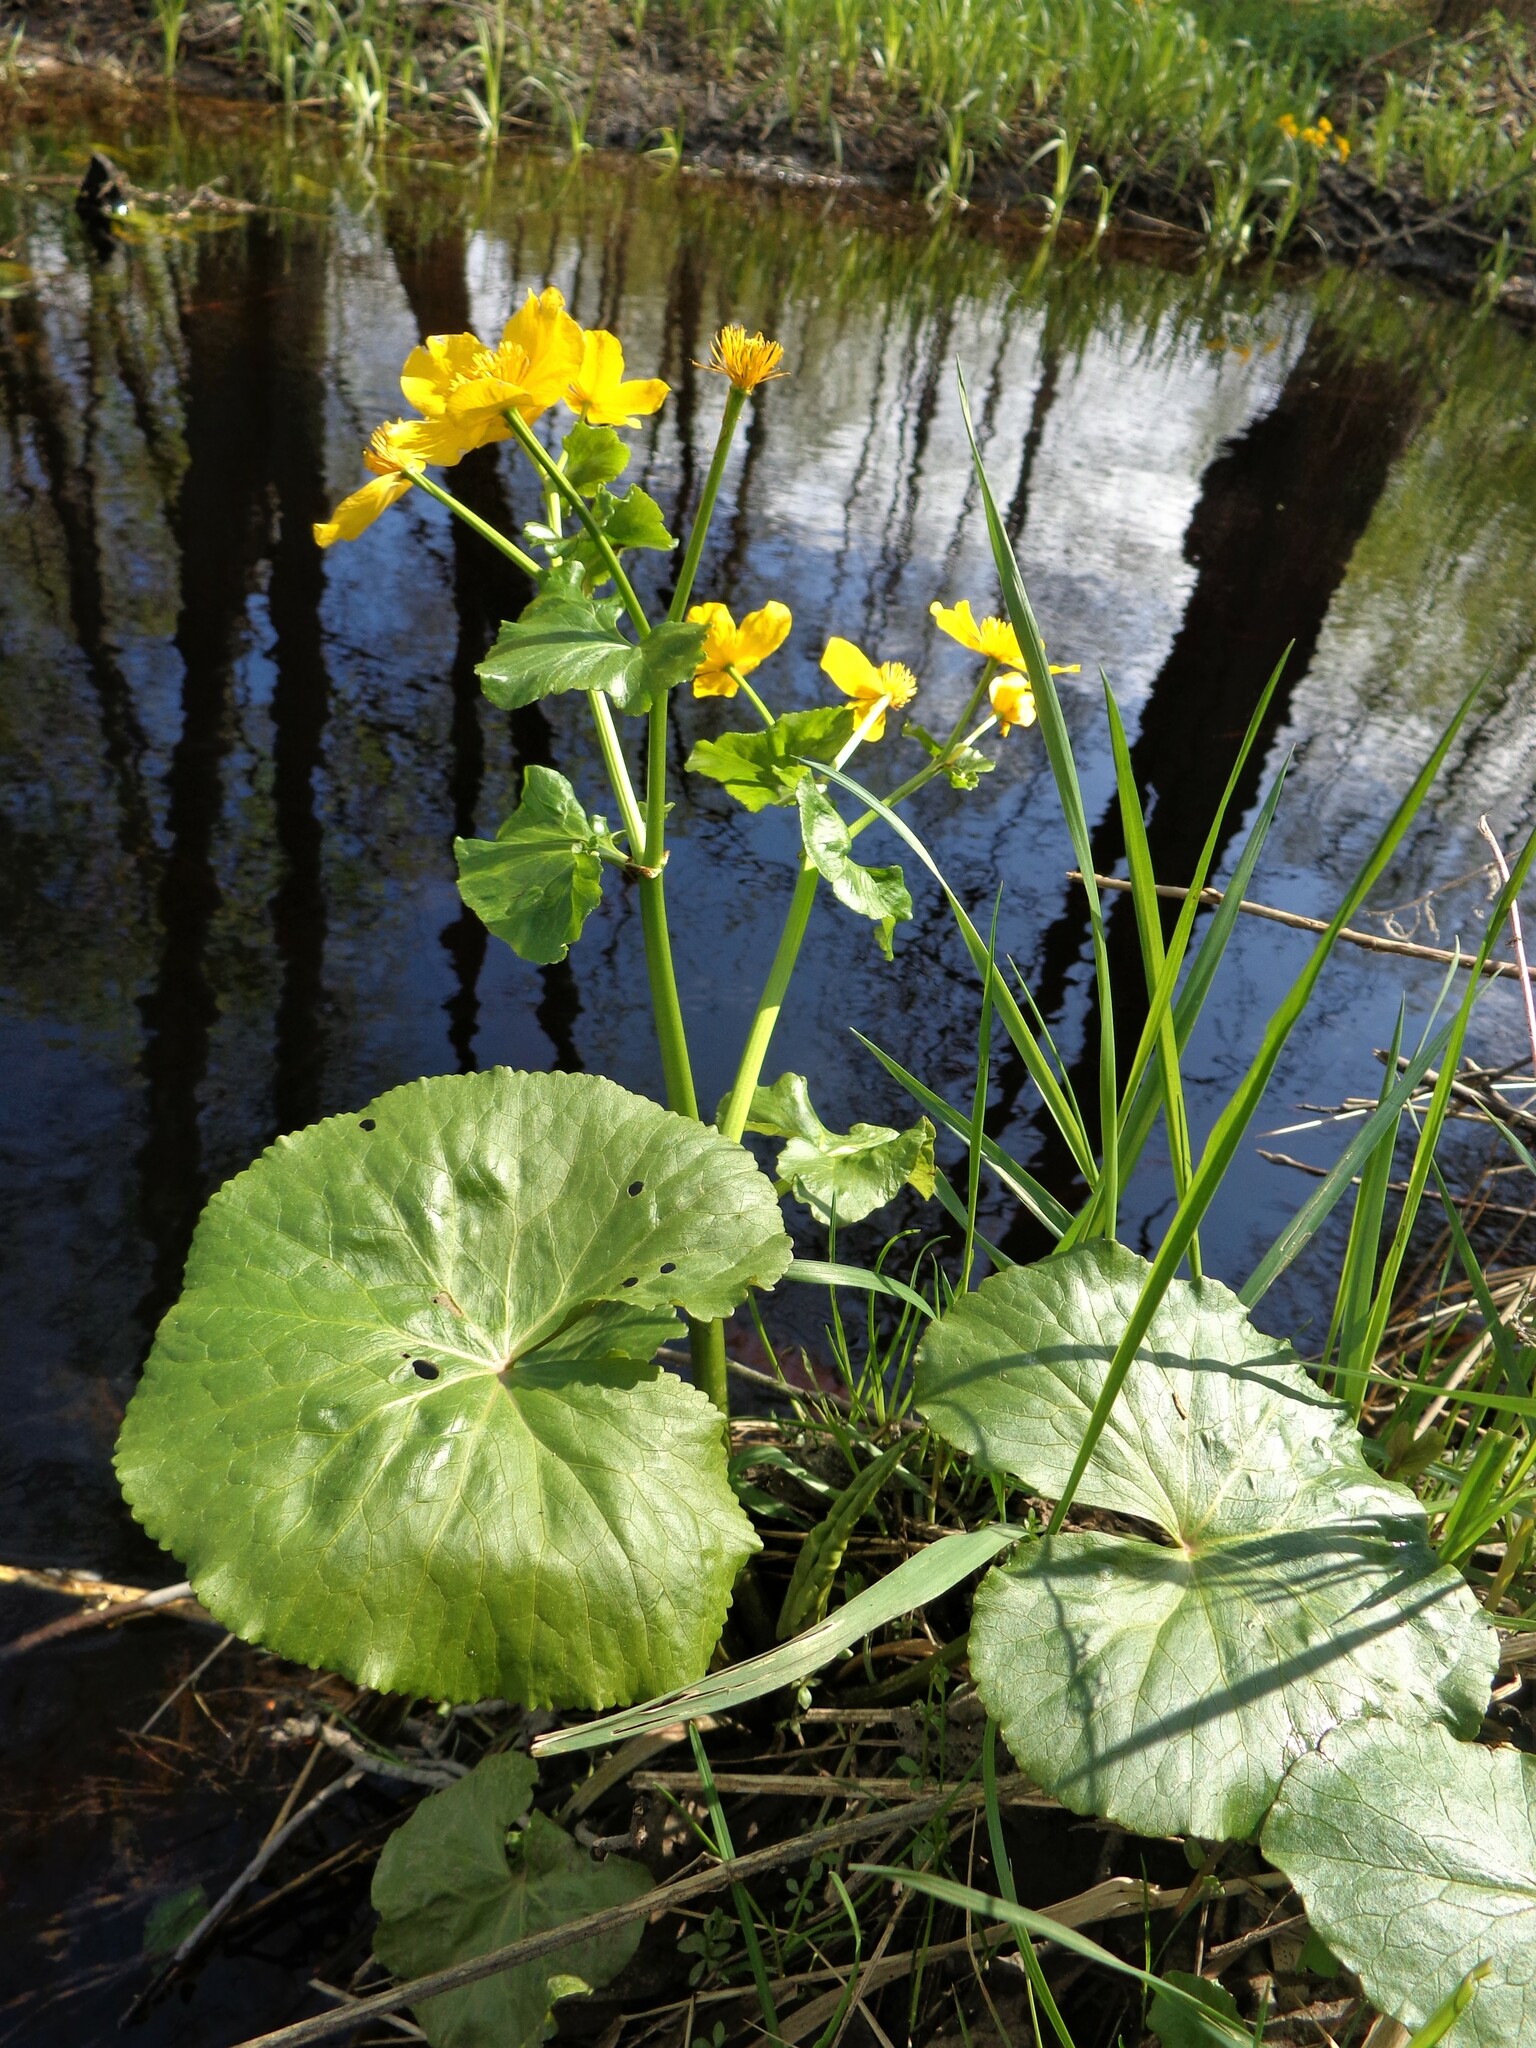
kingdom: Plantae
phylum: Tracheophyta
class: Magnoliopsida
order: Ranunculales
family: Ranunculaceae
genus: Caltha
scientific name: Caltha palustris
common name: Marsh marigold
